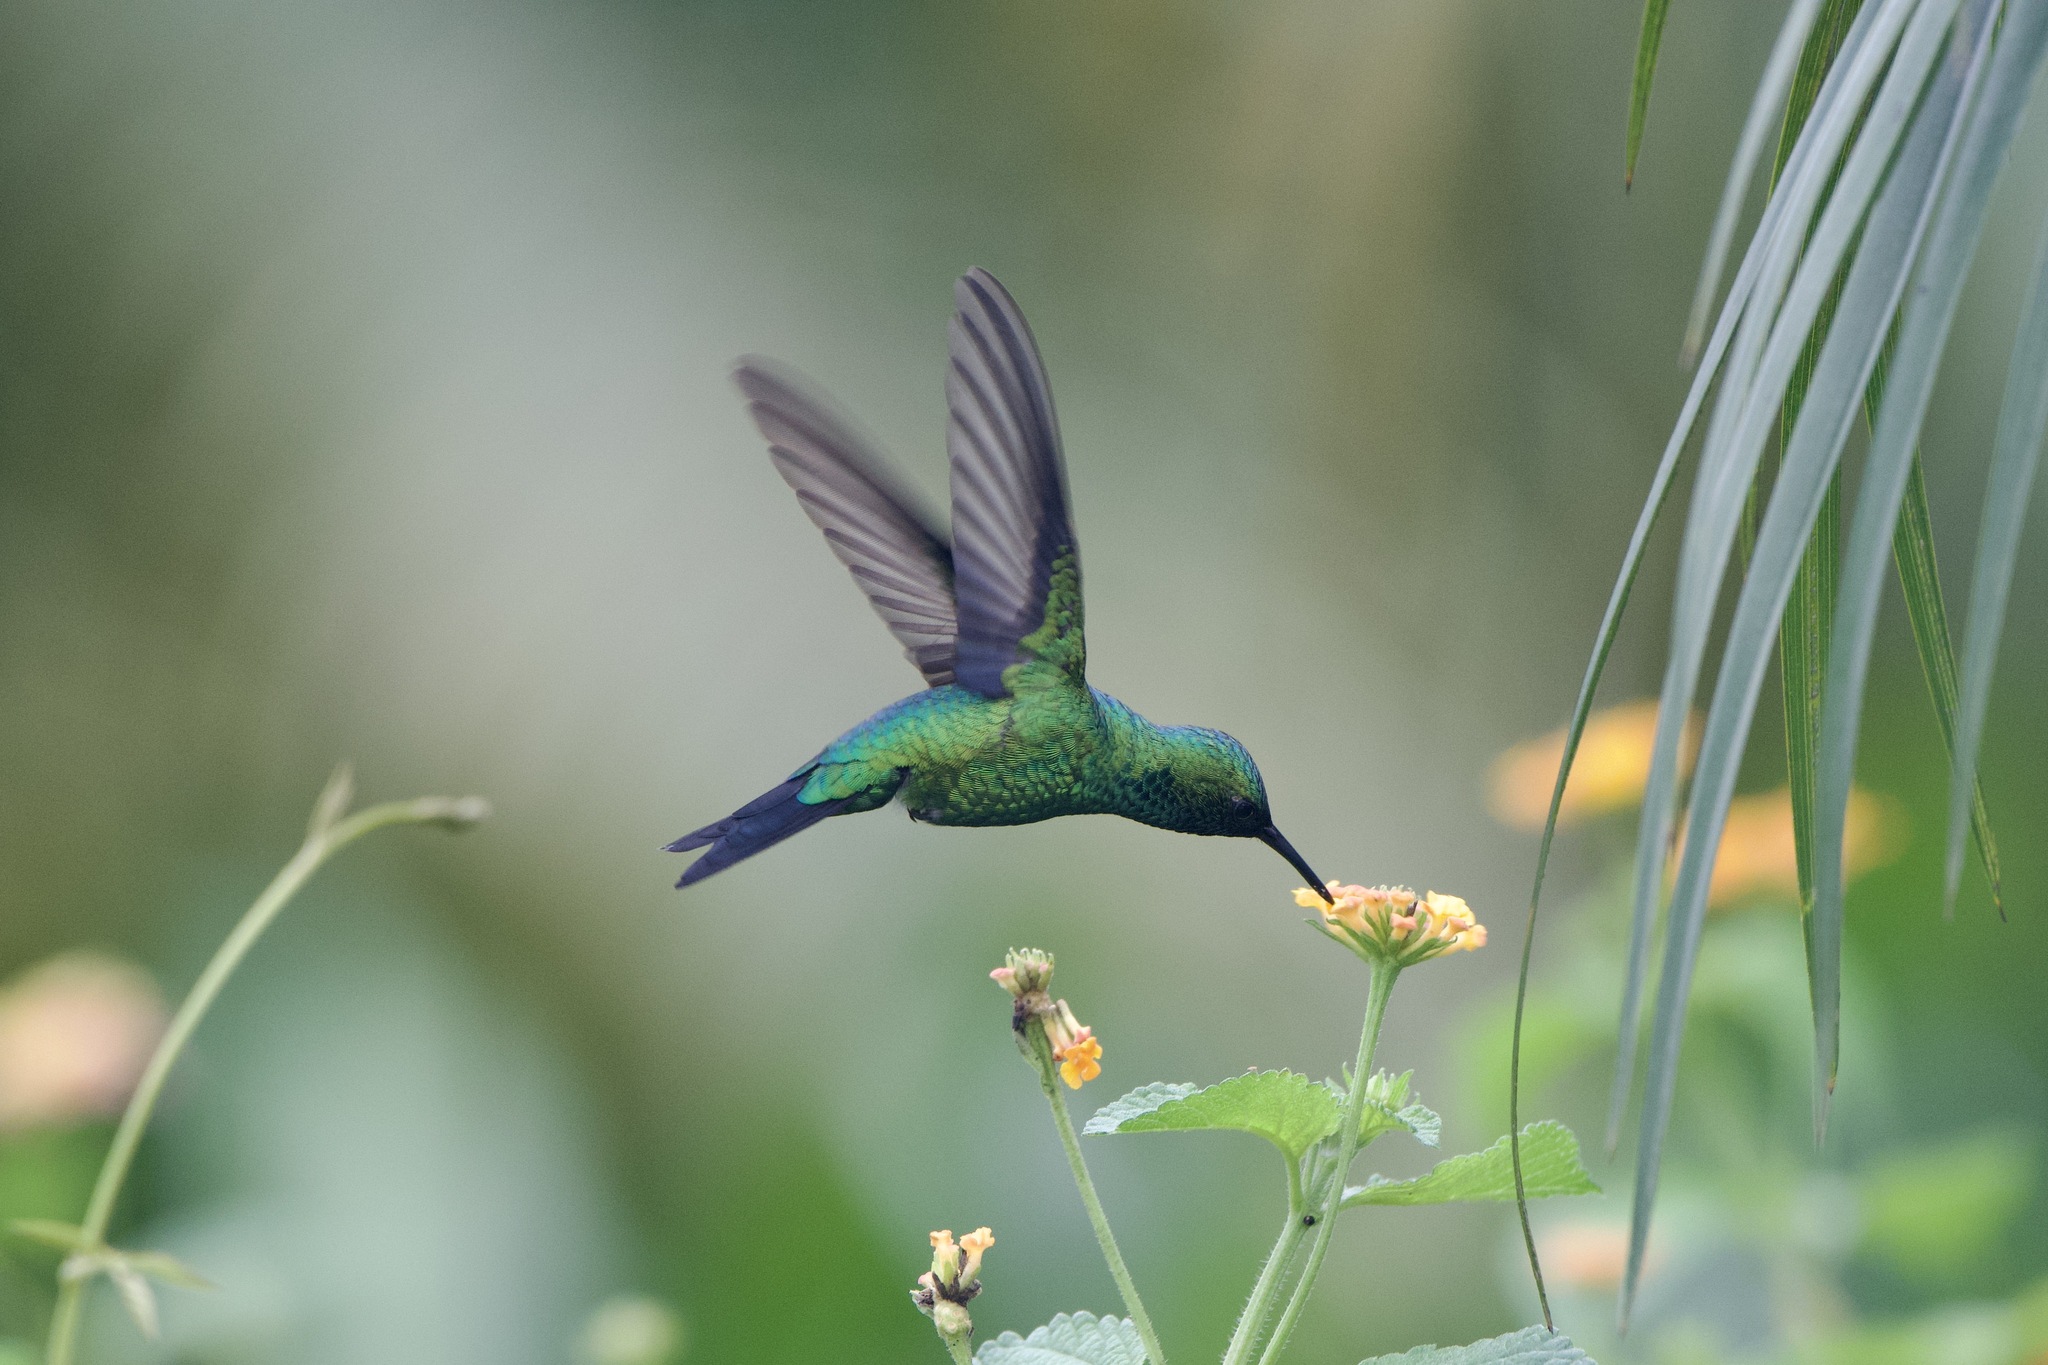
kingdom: Animalia
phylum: Chordata
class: Aves
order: Apodiformes
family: Trochilidae
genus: Chlorostilbon
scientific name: Chlorostilbon assimilis
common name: Garden emerald
